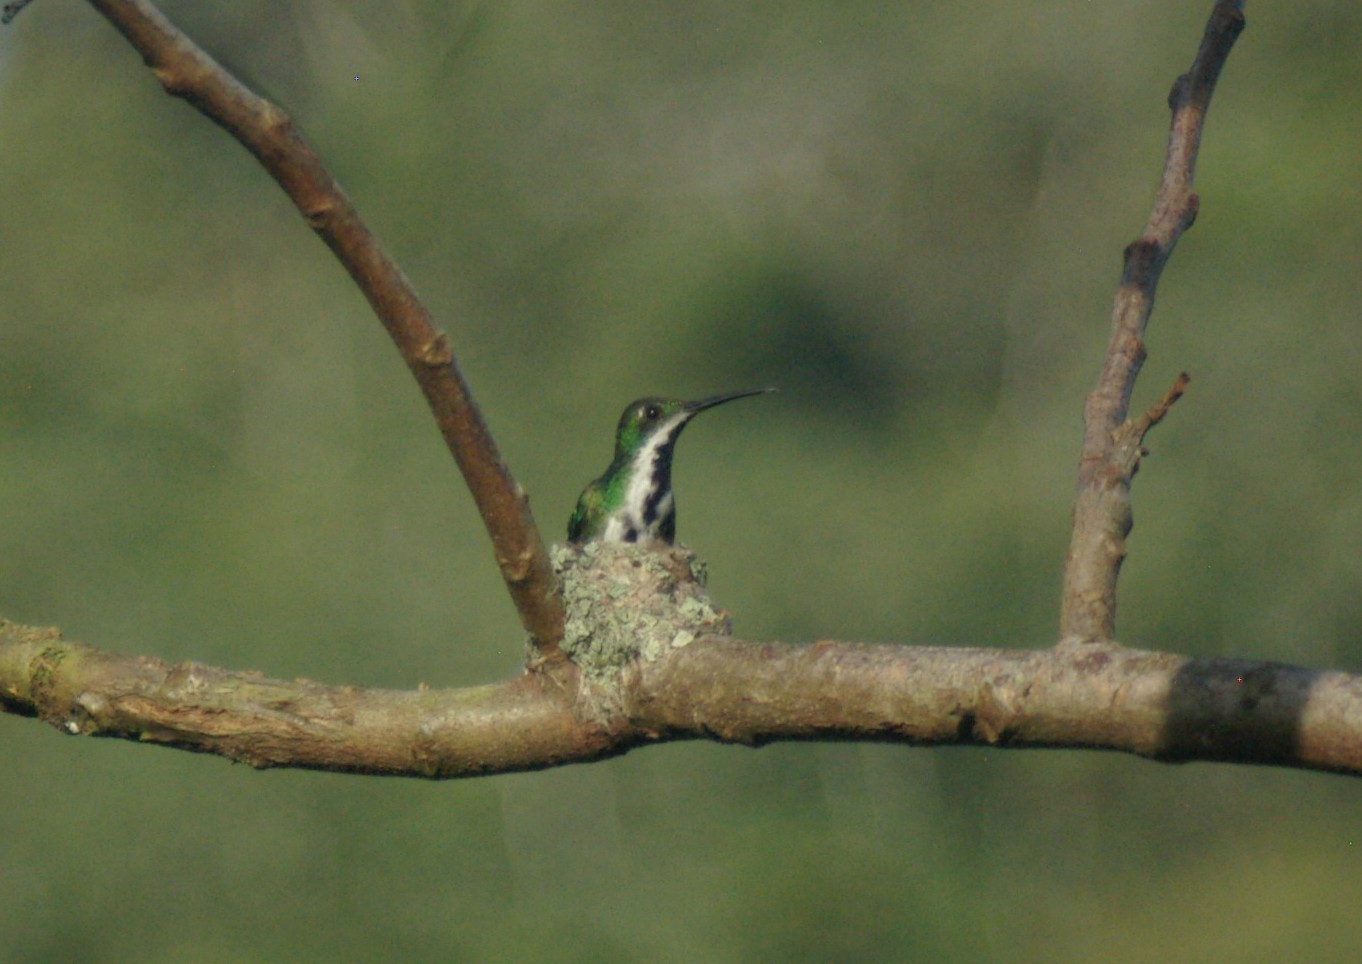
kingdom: Animalia
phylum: Chordata
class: Aves
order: Apodiformes
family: Trochilidae
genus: Anthracothorax
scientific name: Anthracothorax nigricollis
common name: Black-throated mango
